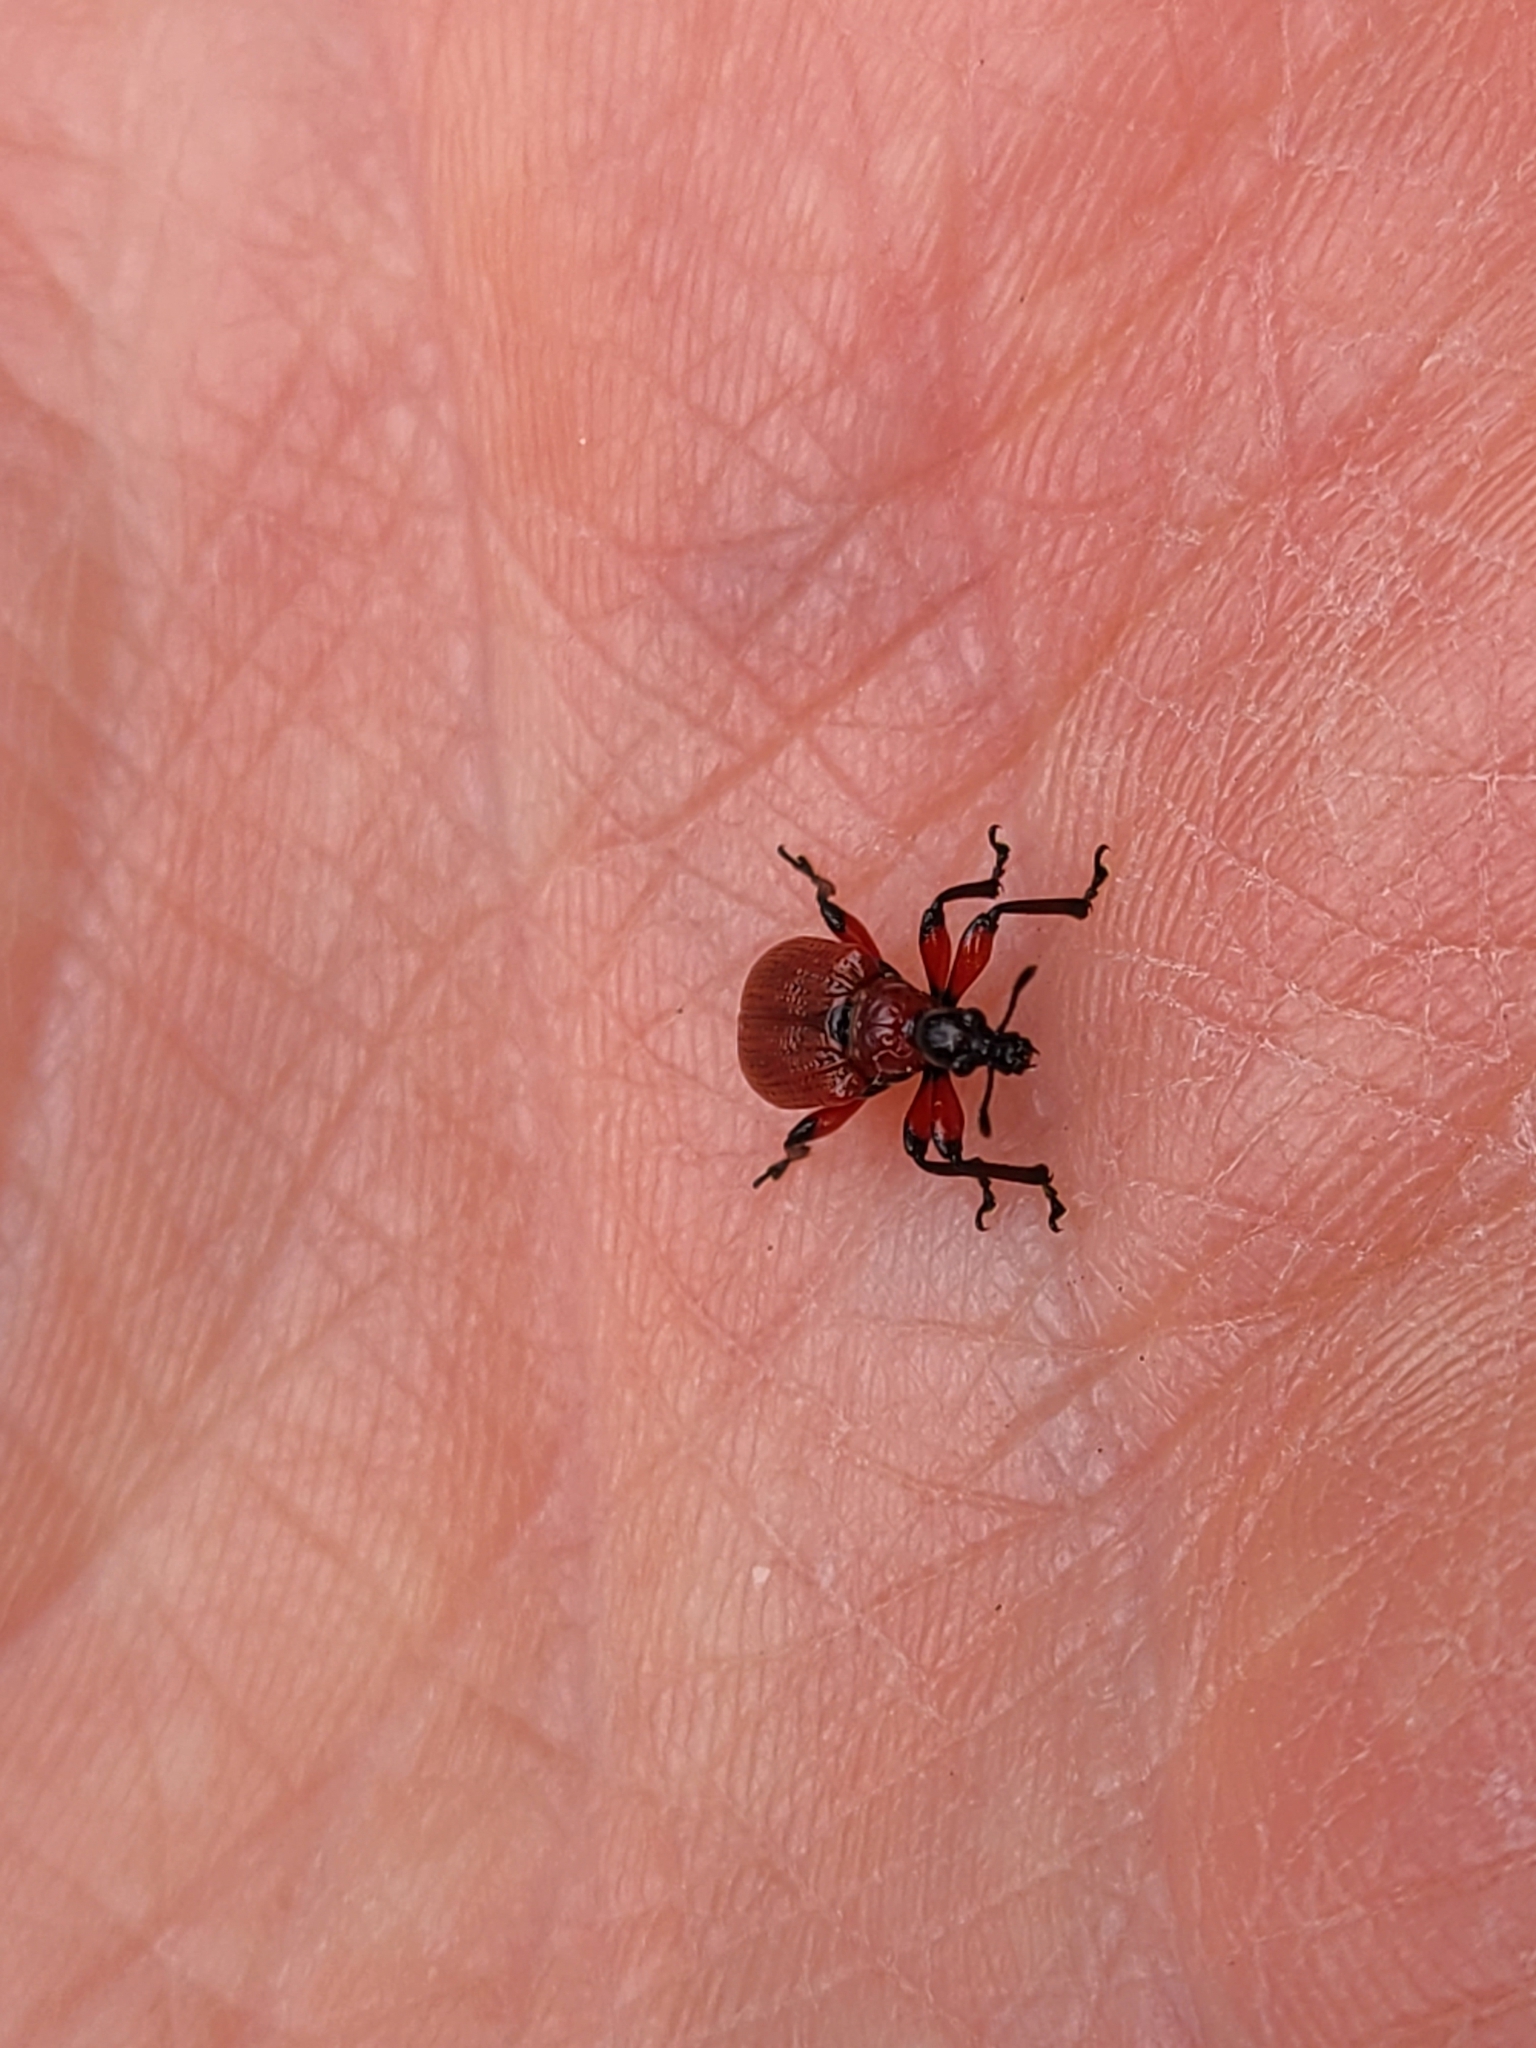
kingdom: Animalia
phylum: Arthropoda
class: Insecta
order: Coleoptera
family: Attelabidae
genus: Apoderus
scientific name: Apoderus coryli
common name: Hazel leaf roller
